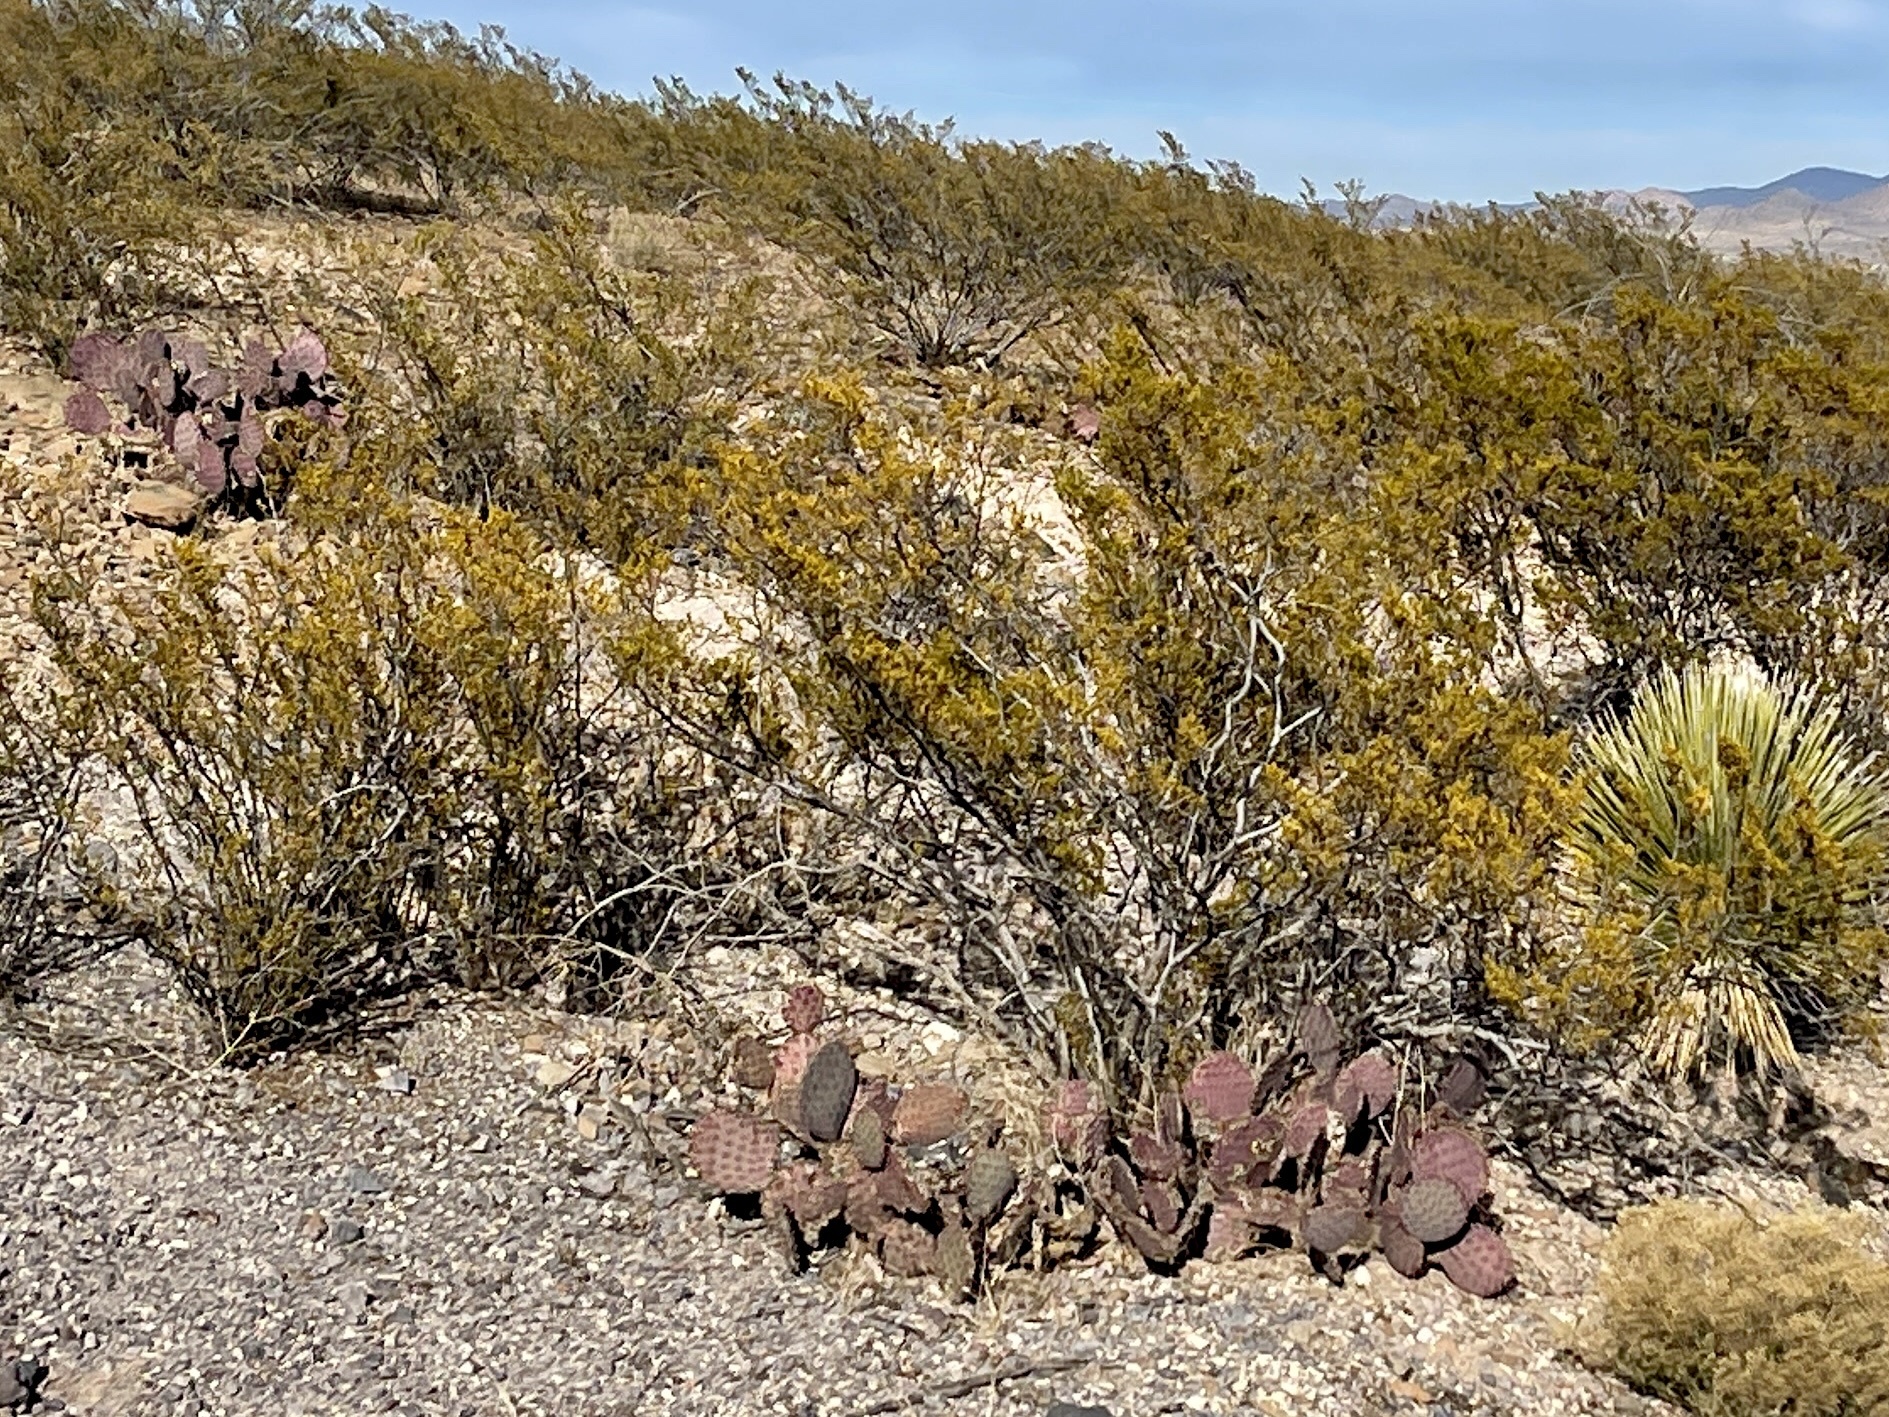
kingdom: Plantae
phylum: Tracheophyta
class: Magnoliopsida
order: Zygophyllales
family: Zygophyllaceae
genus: Larrea
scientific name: Larrea tridentata
